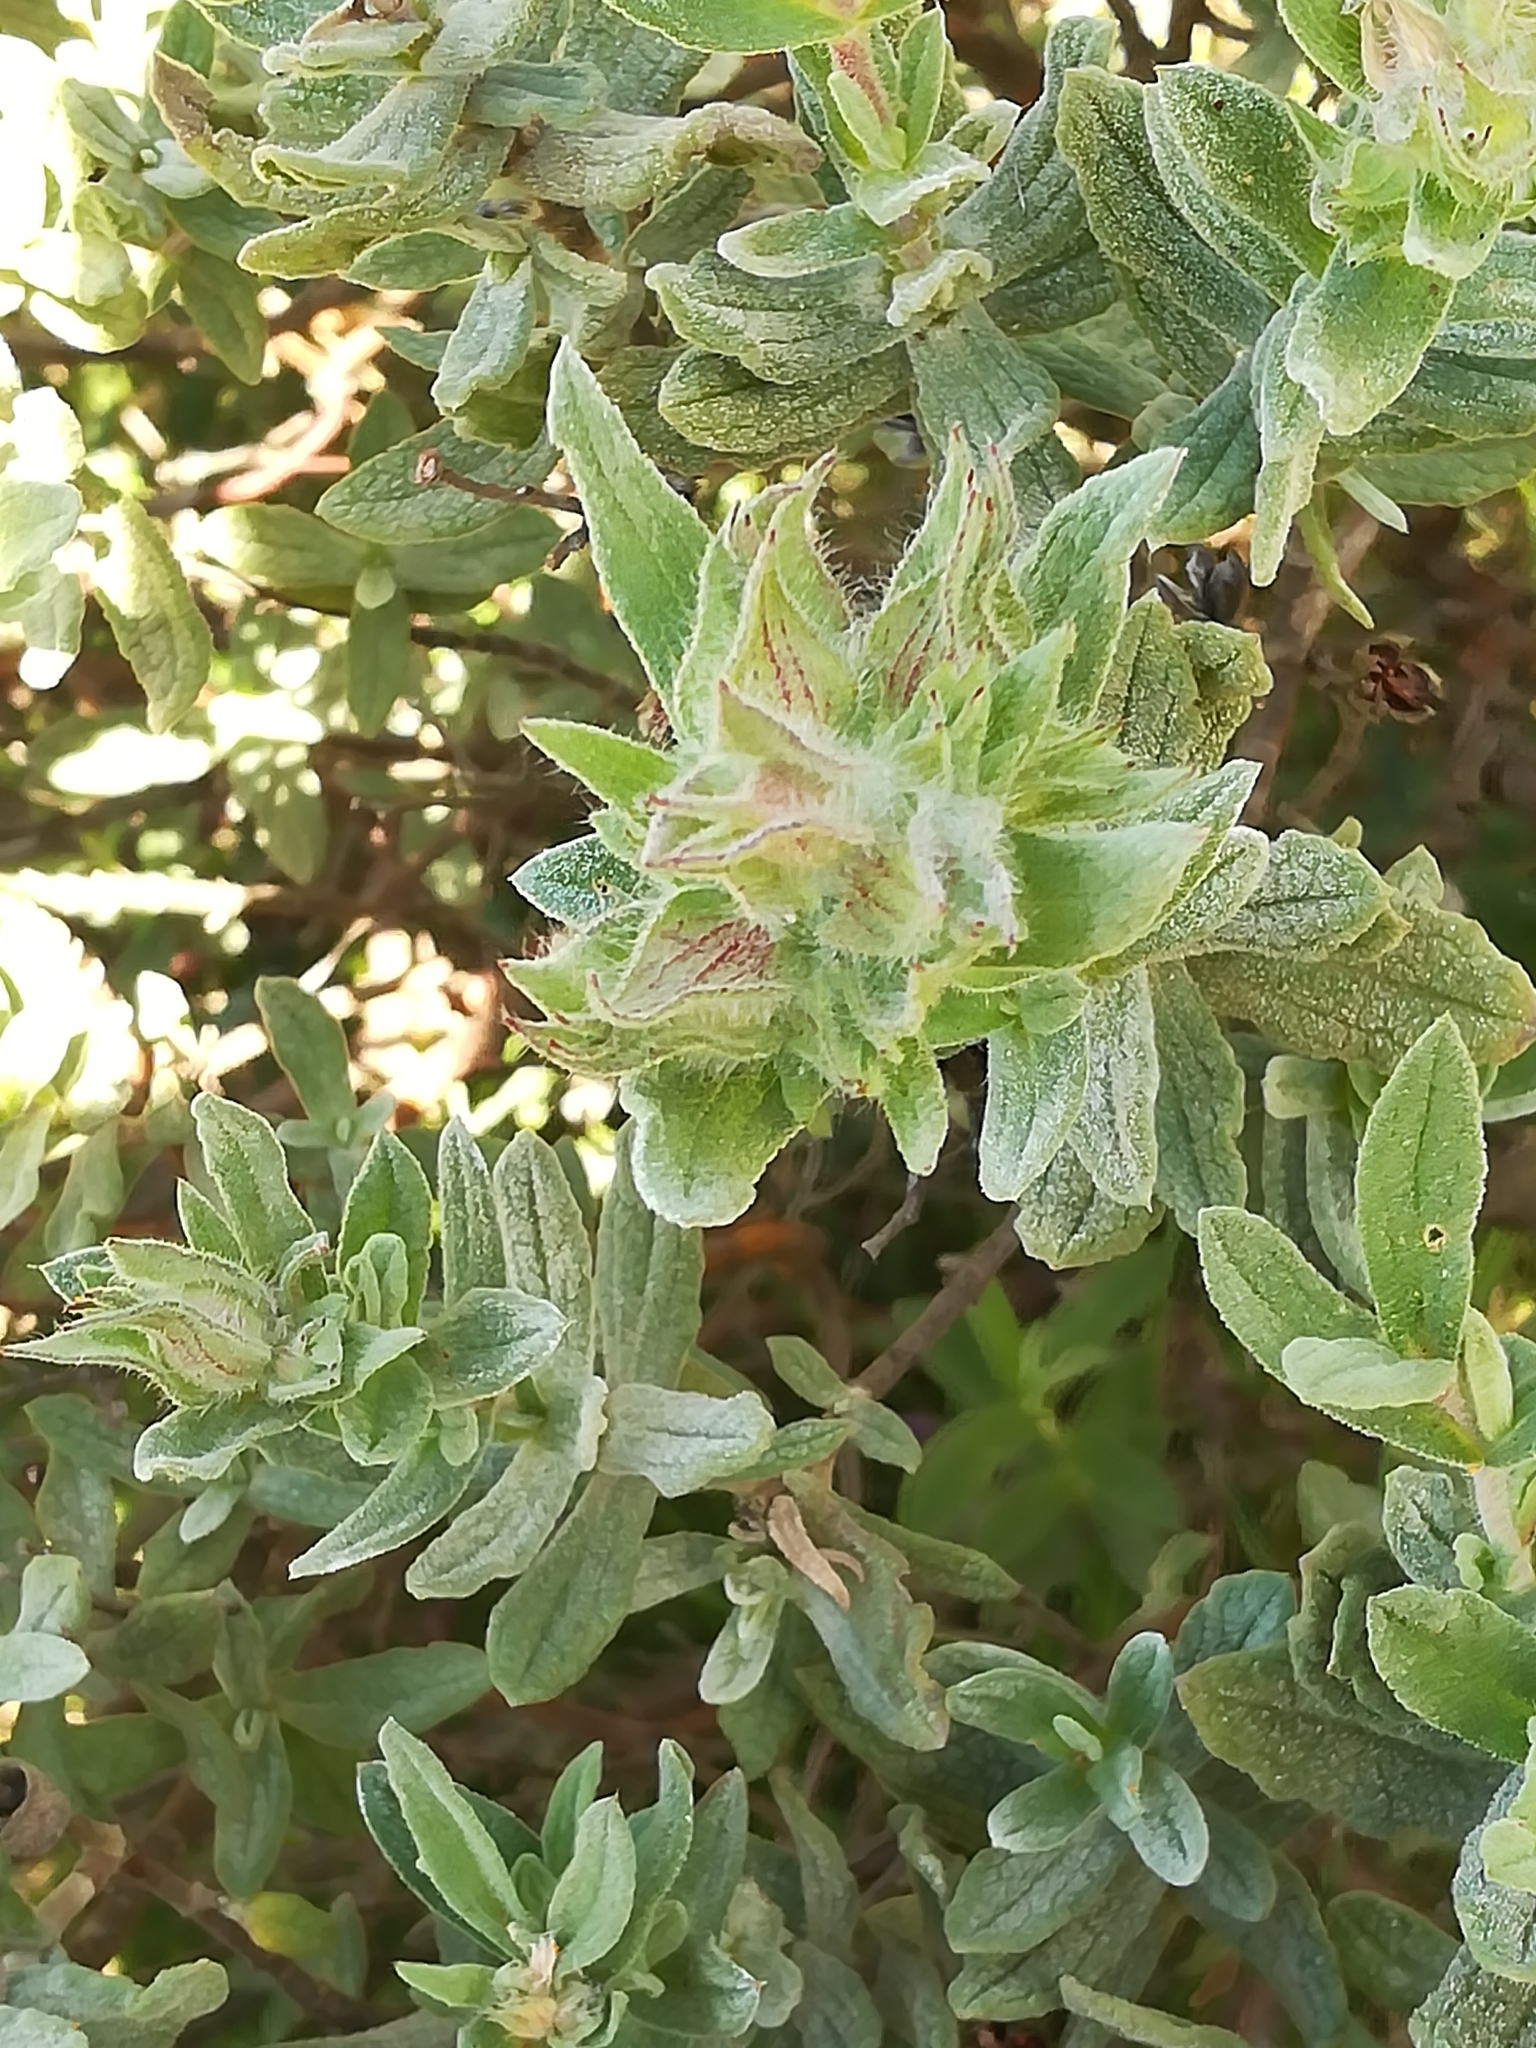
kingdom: Plantae
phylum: Tracheophyta
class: Magnoliopsida
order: Malvales
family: Cistaceae
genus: Cistus
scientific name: Cistus albidus
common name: White-leaf rock-rose
